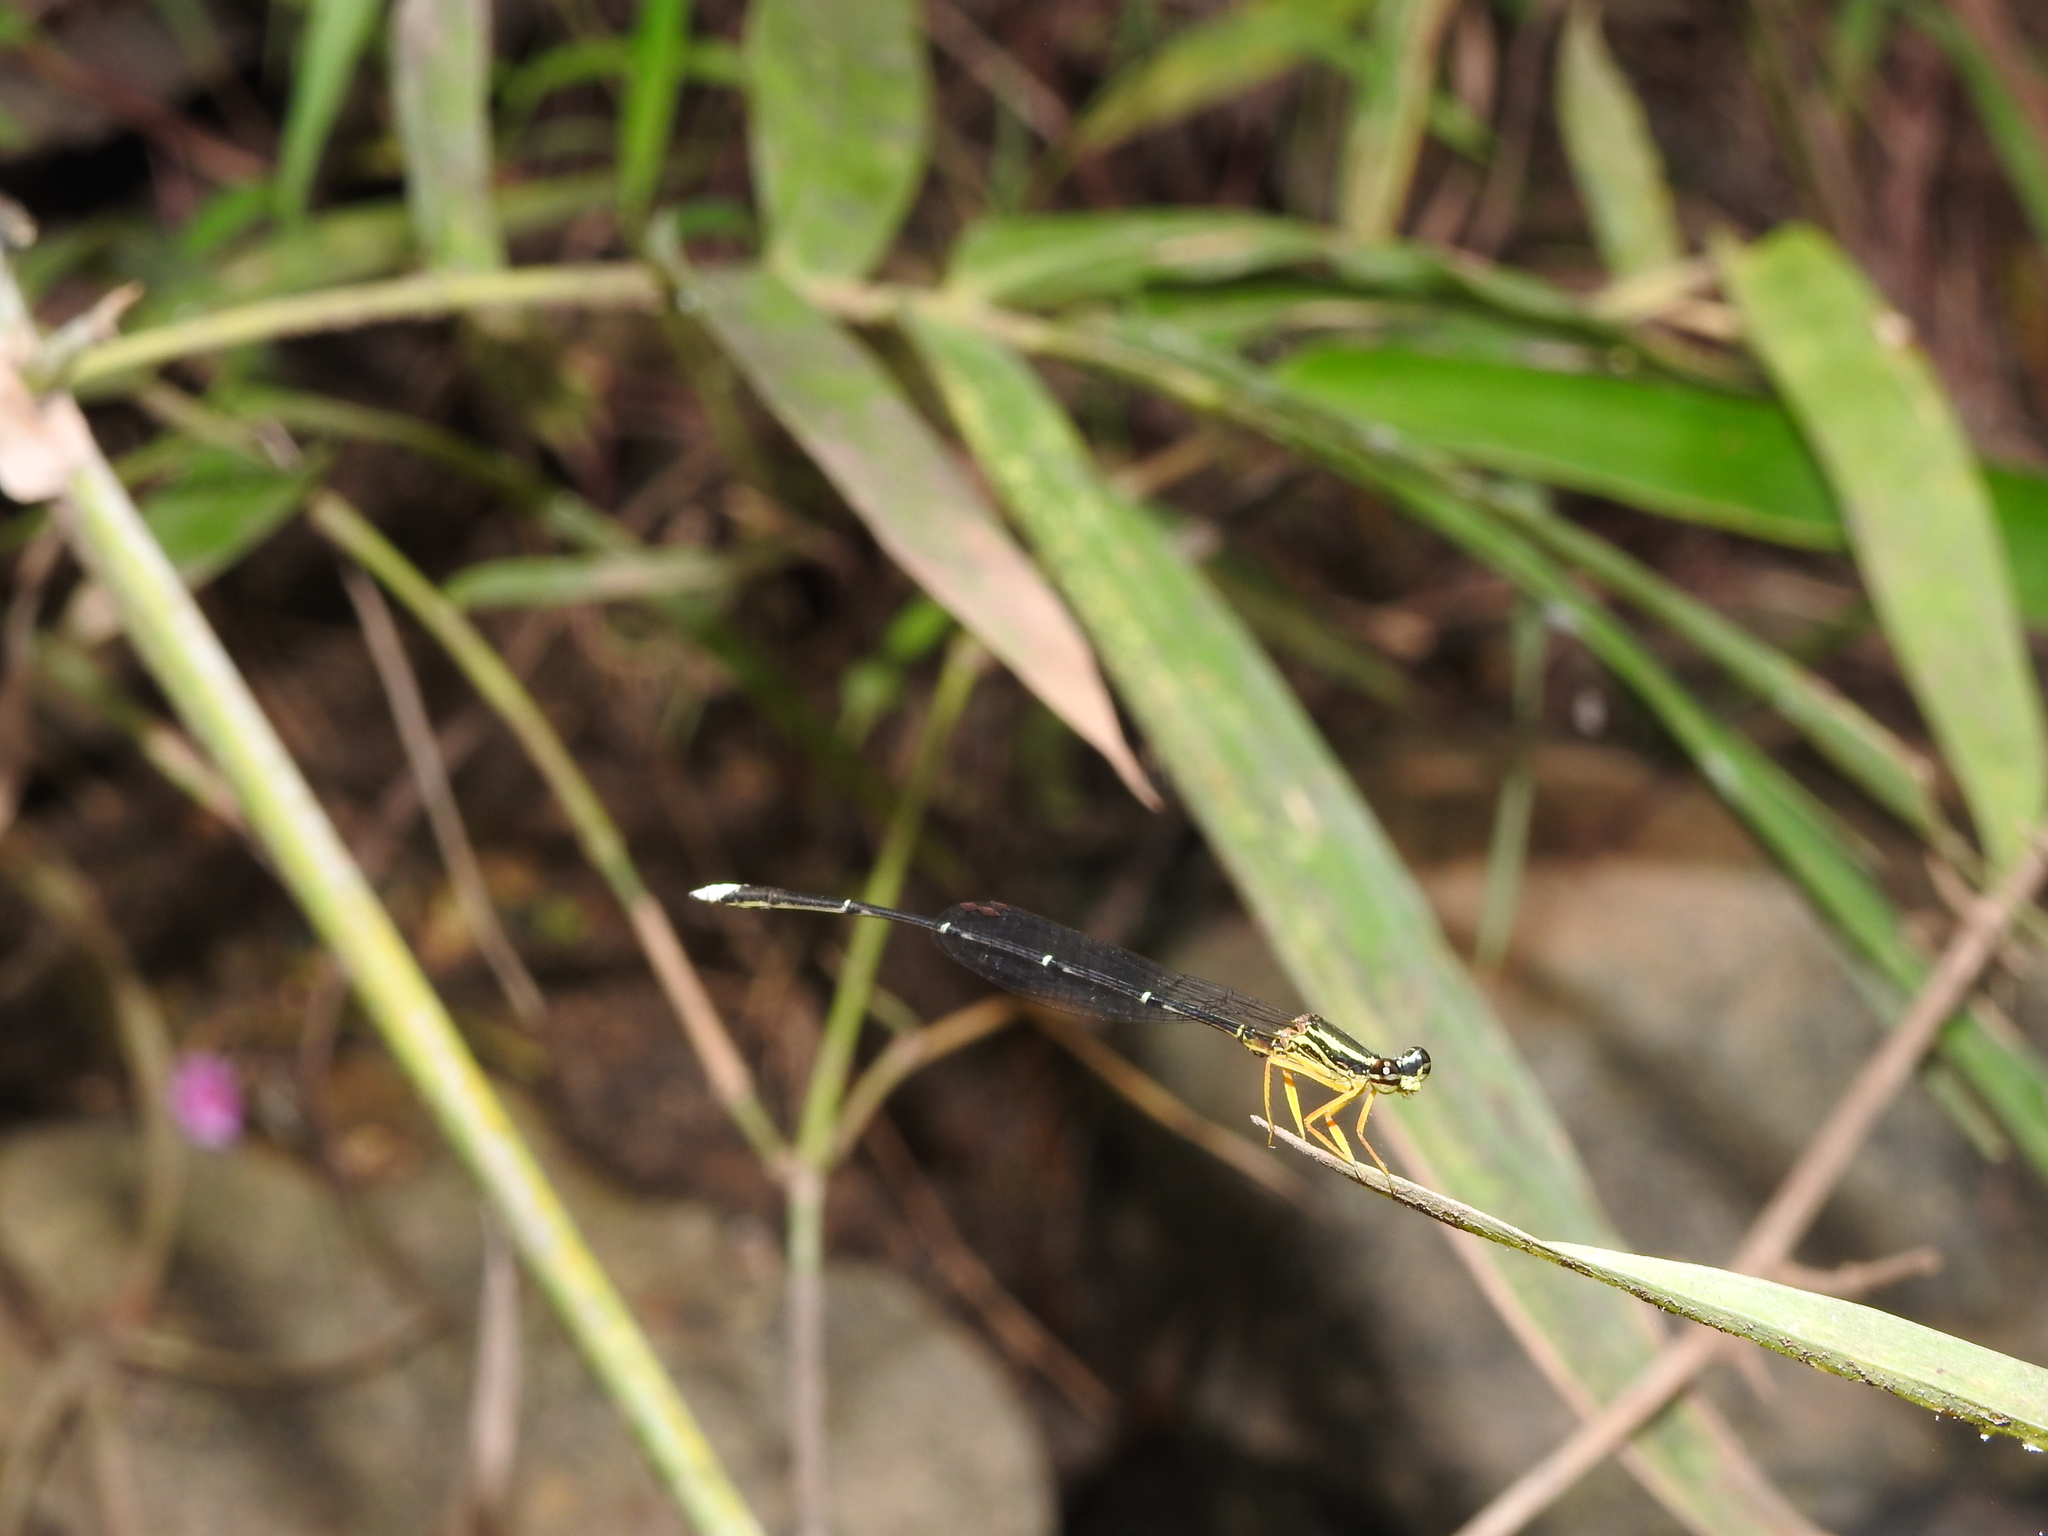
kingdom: Animalia
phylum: Arthropoda
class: Insecta
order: Odonata
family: Platycnemididae
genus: Copera
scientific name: Copera marginipes
